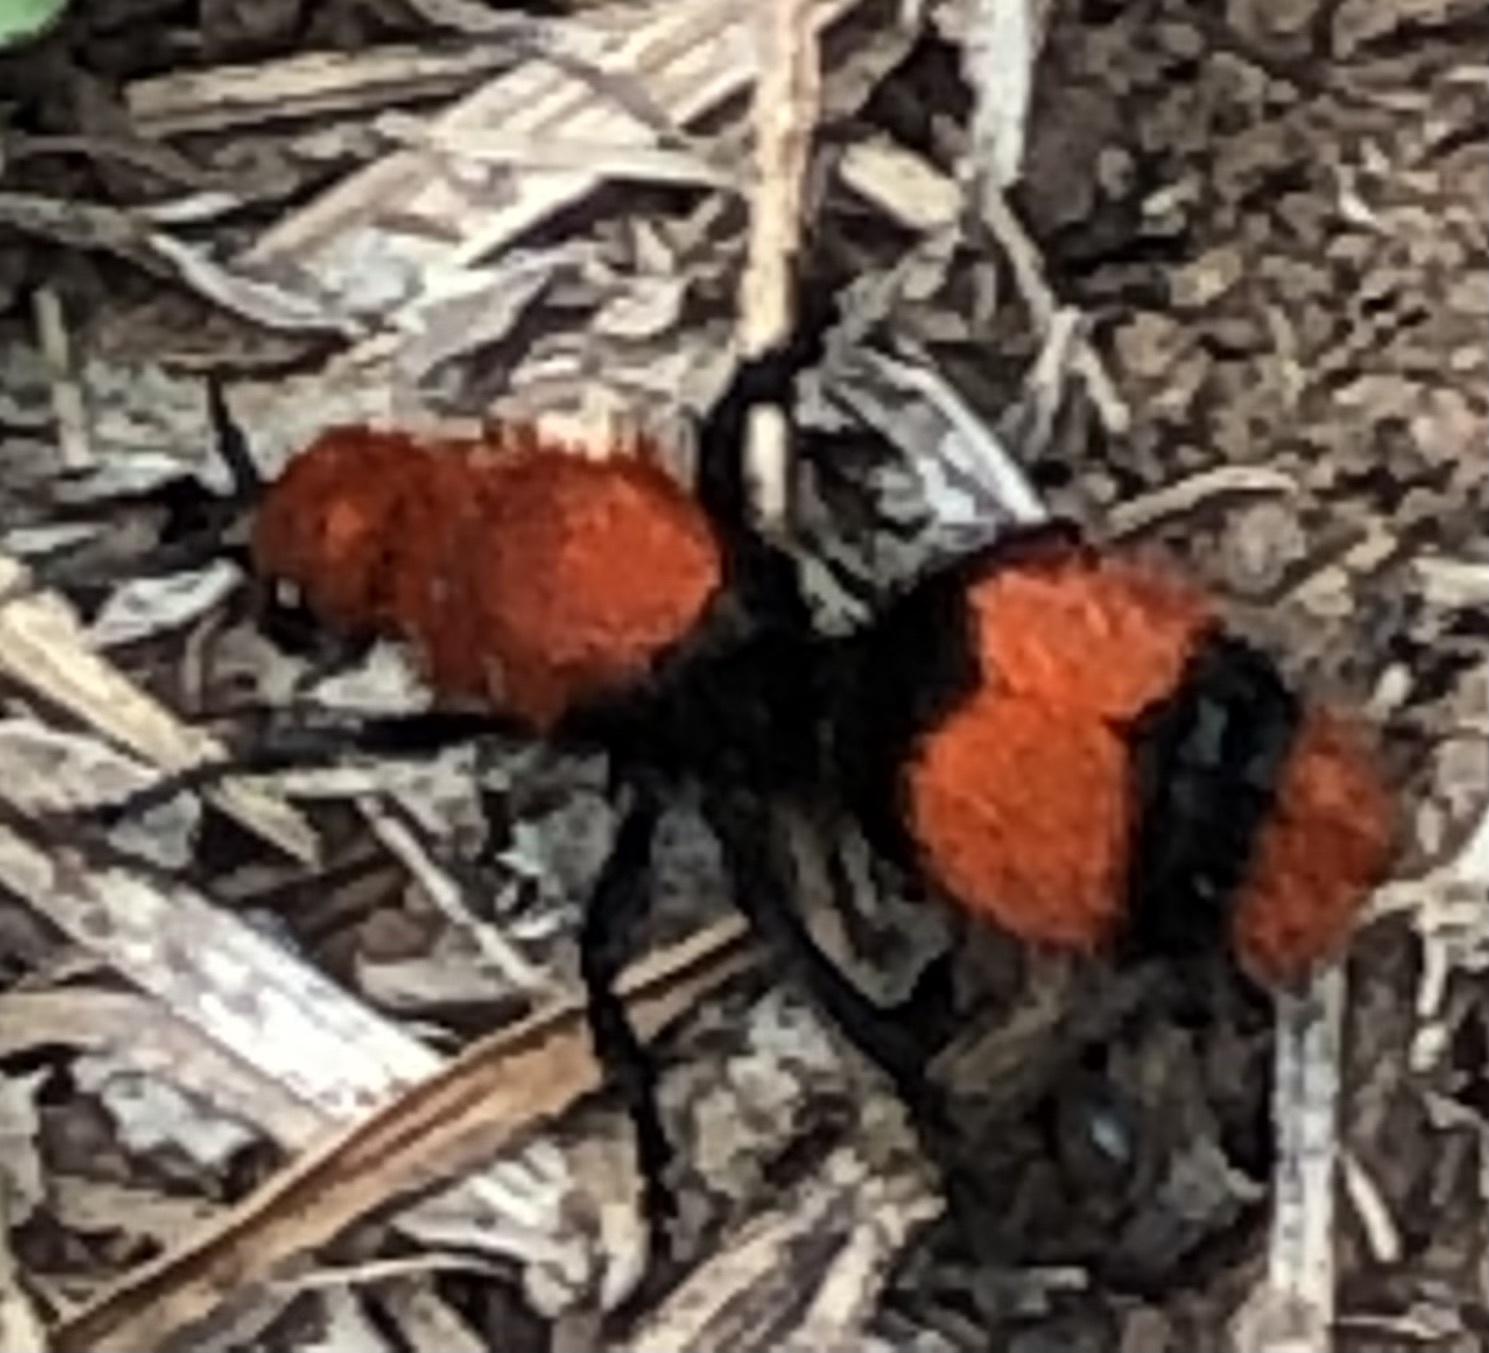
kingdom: Animalia
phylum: Arthropoda
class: Insecta
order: Hymenoptera
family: Mutillidae
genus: Dasymutilla
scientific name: Dasymutilla occidentalis
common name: Common eastern velvet ant
